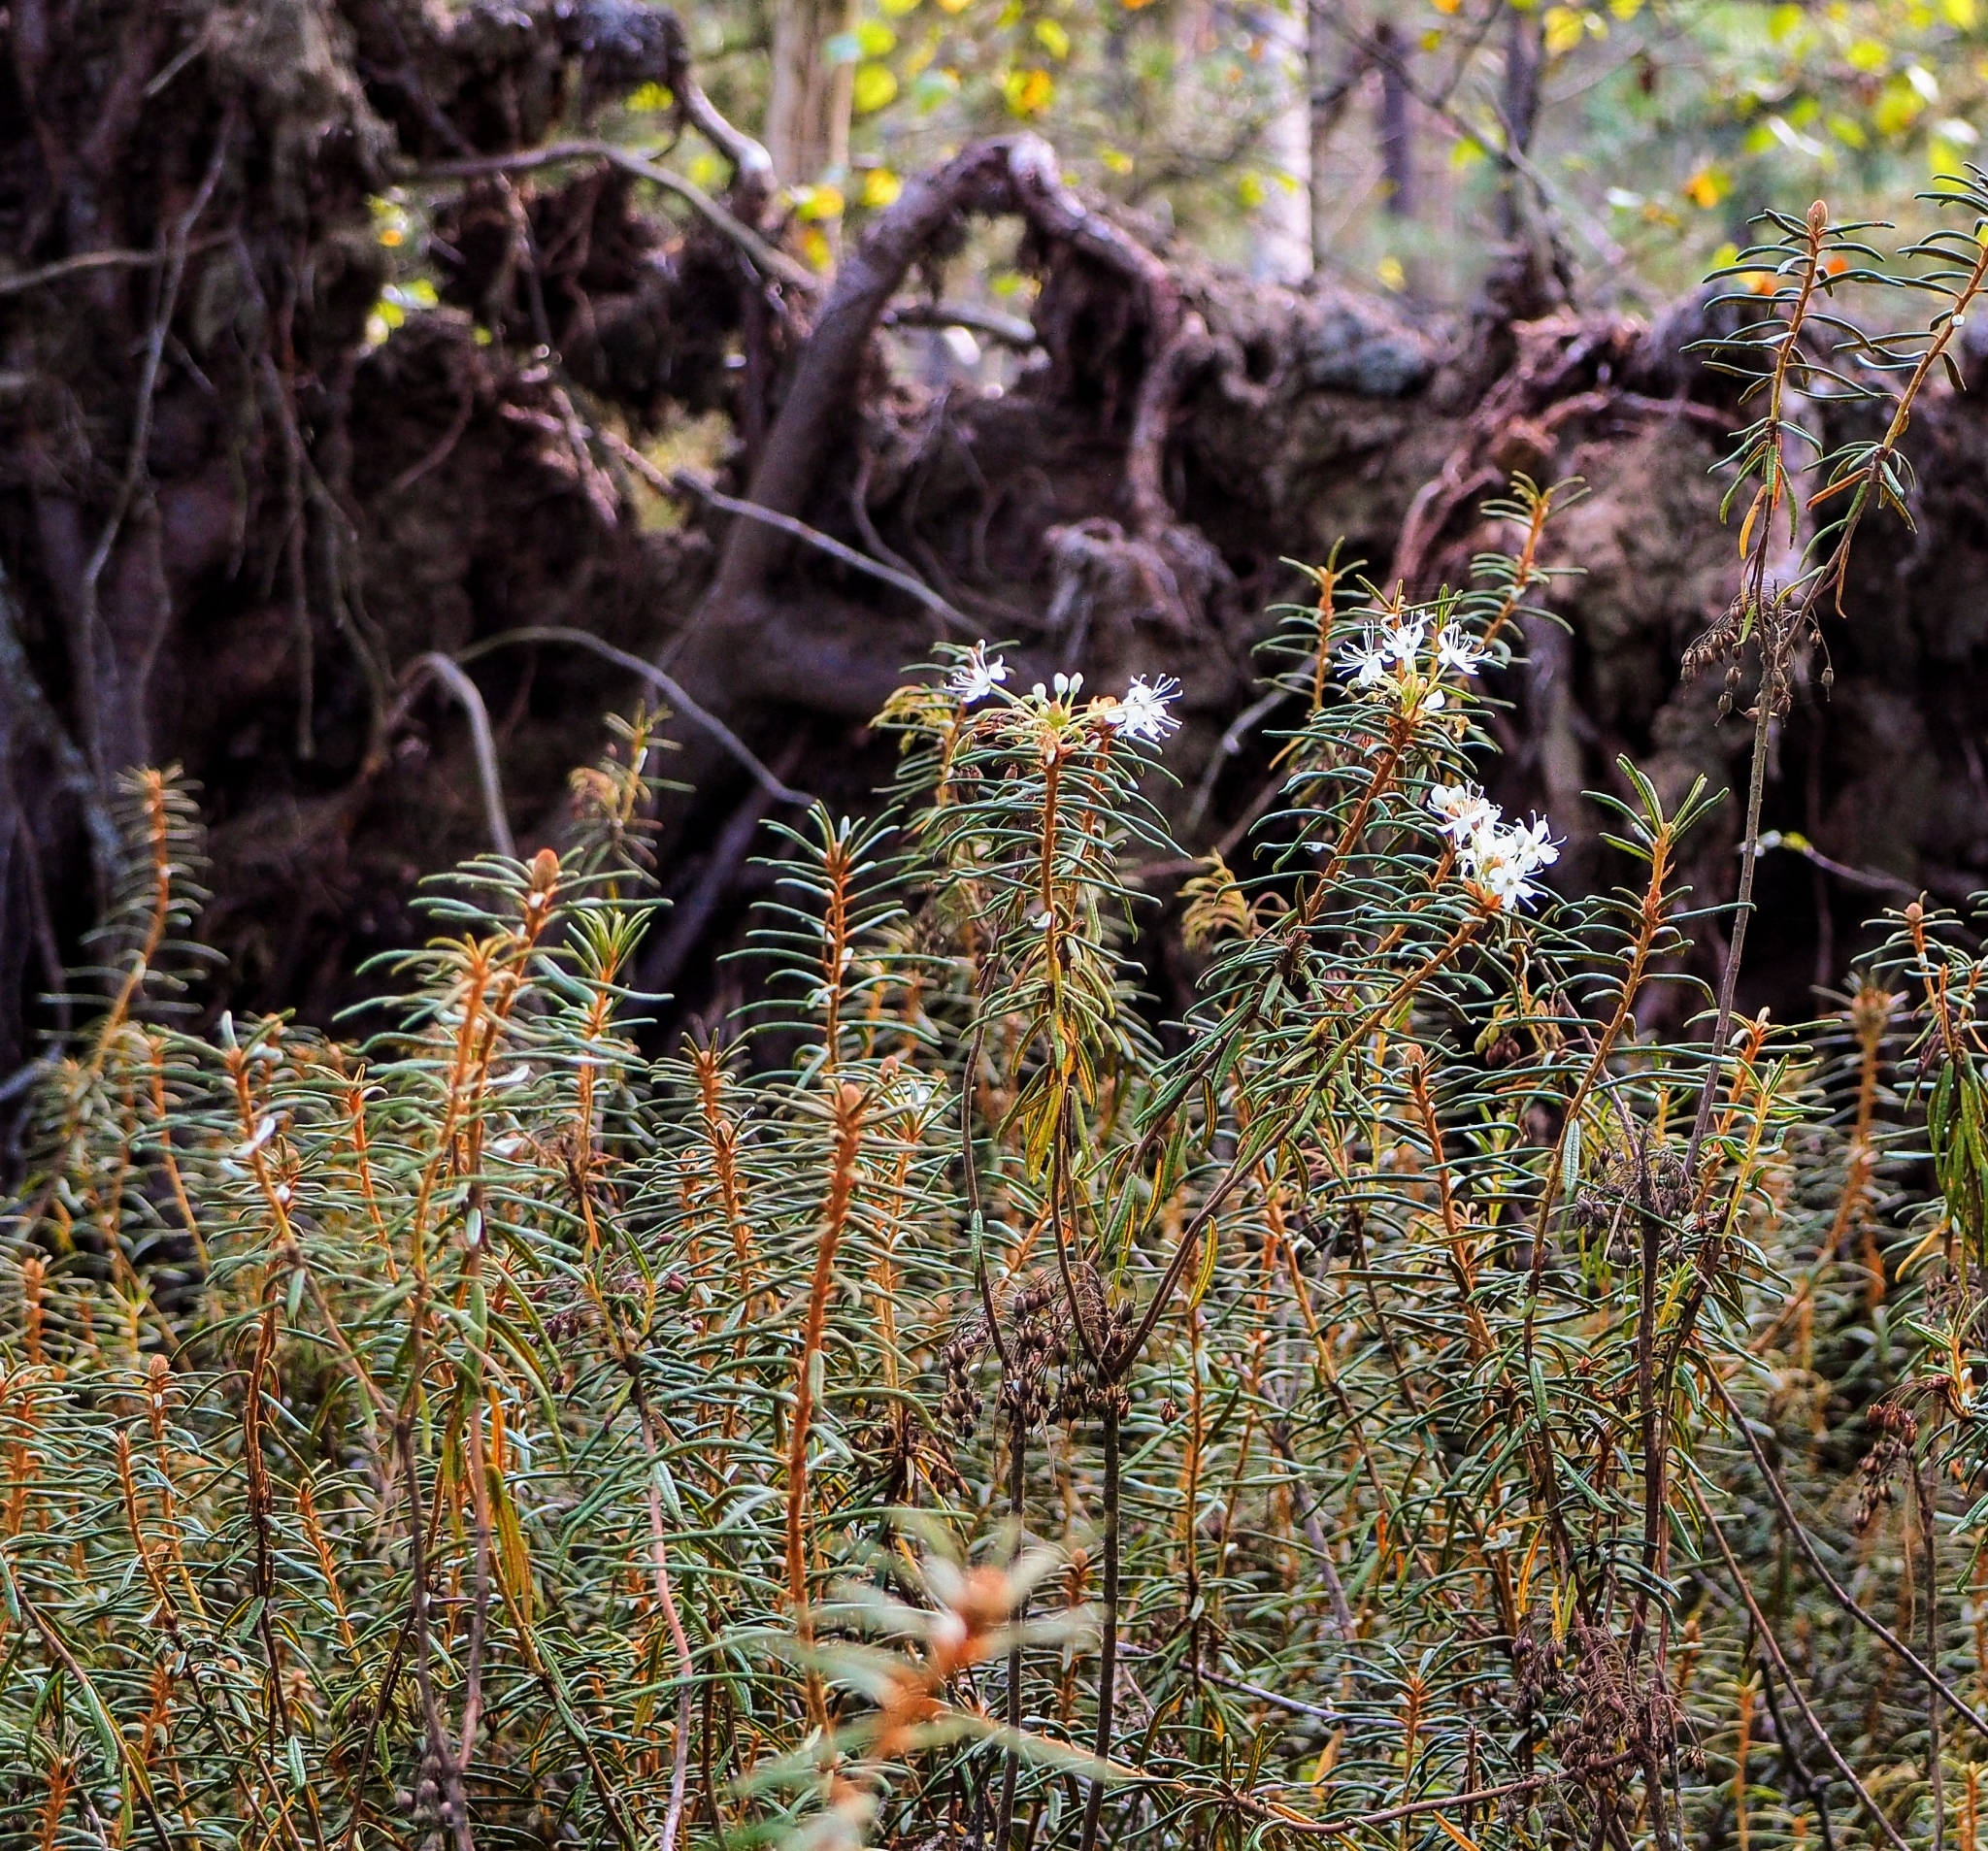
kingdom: Plantae
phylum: Tracheophyta
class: Magnoliopsida
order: Ericales
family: Ericaceae
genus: Rhododendron
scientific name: Rhododendron tomentosum
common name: Marsh labrador tea
